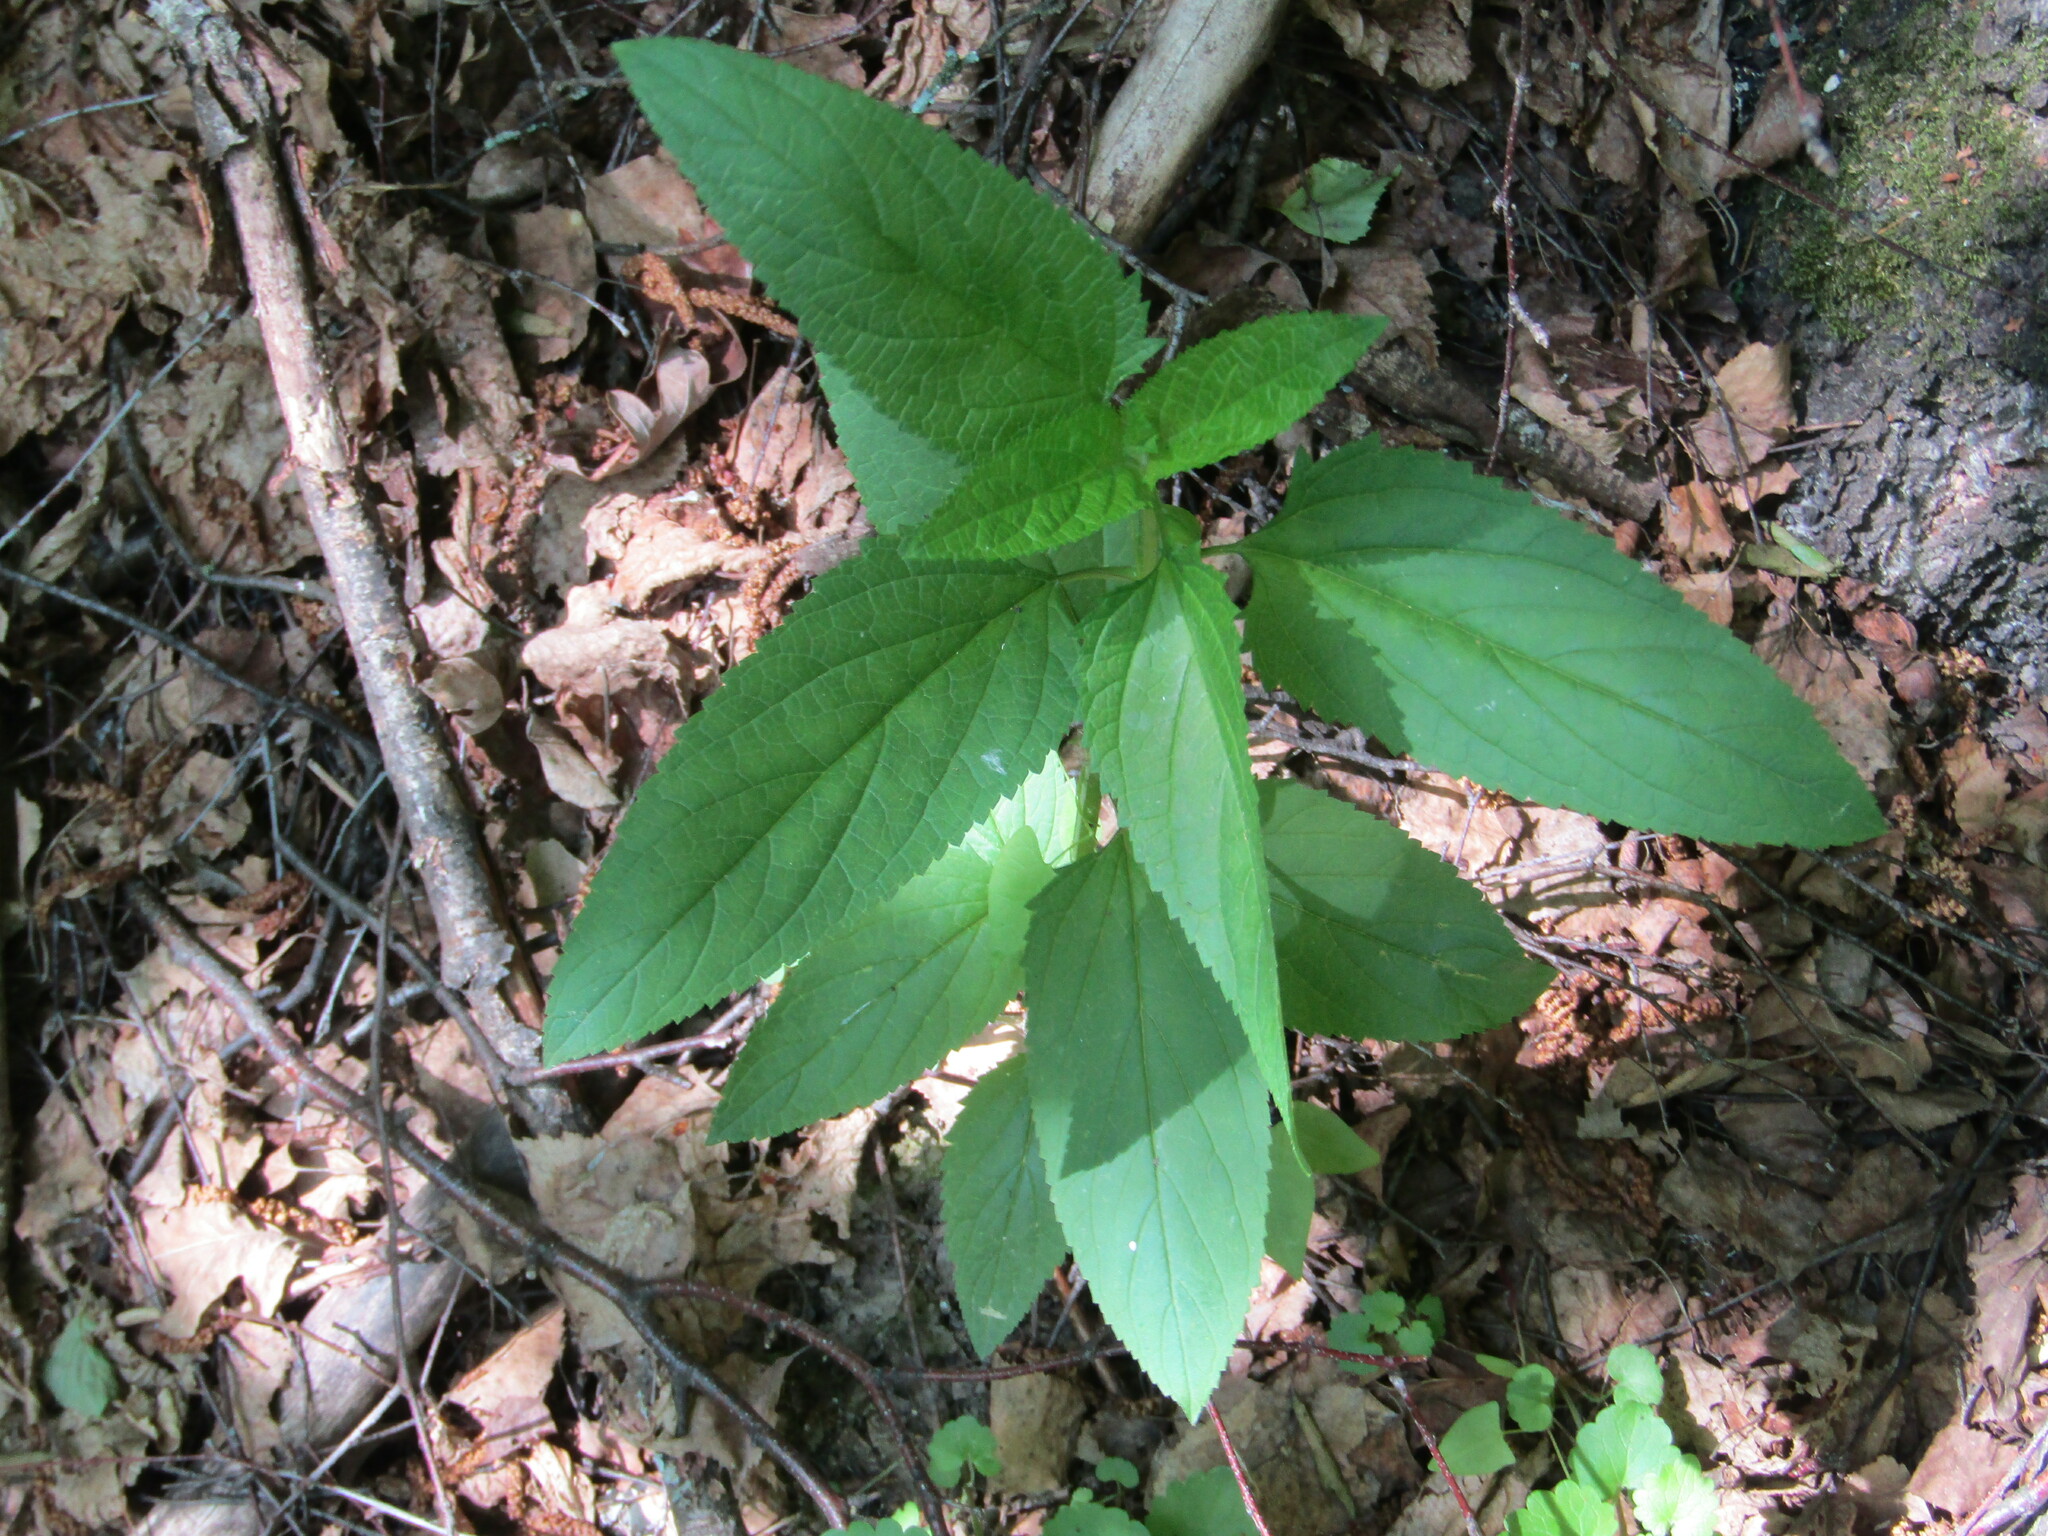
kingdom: Plantae
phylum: Tracheophyta
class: Magnoliopsida
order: Lamiales
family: Scrophulariaceae
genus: Scrophularia
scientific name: Scrophularia nodosa
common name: Common figwort
